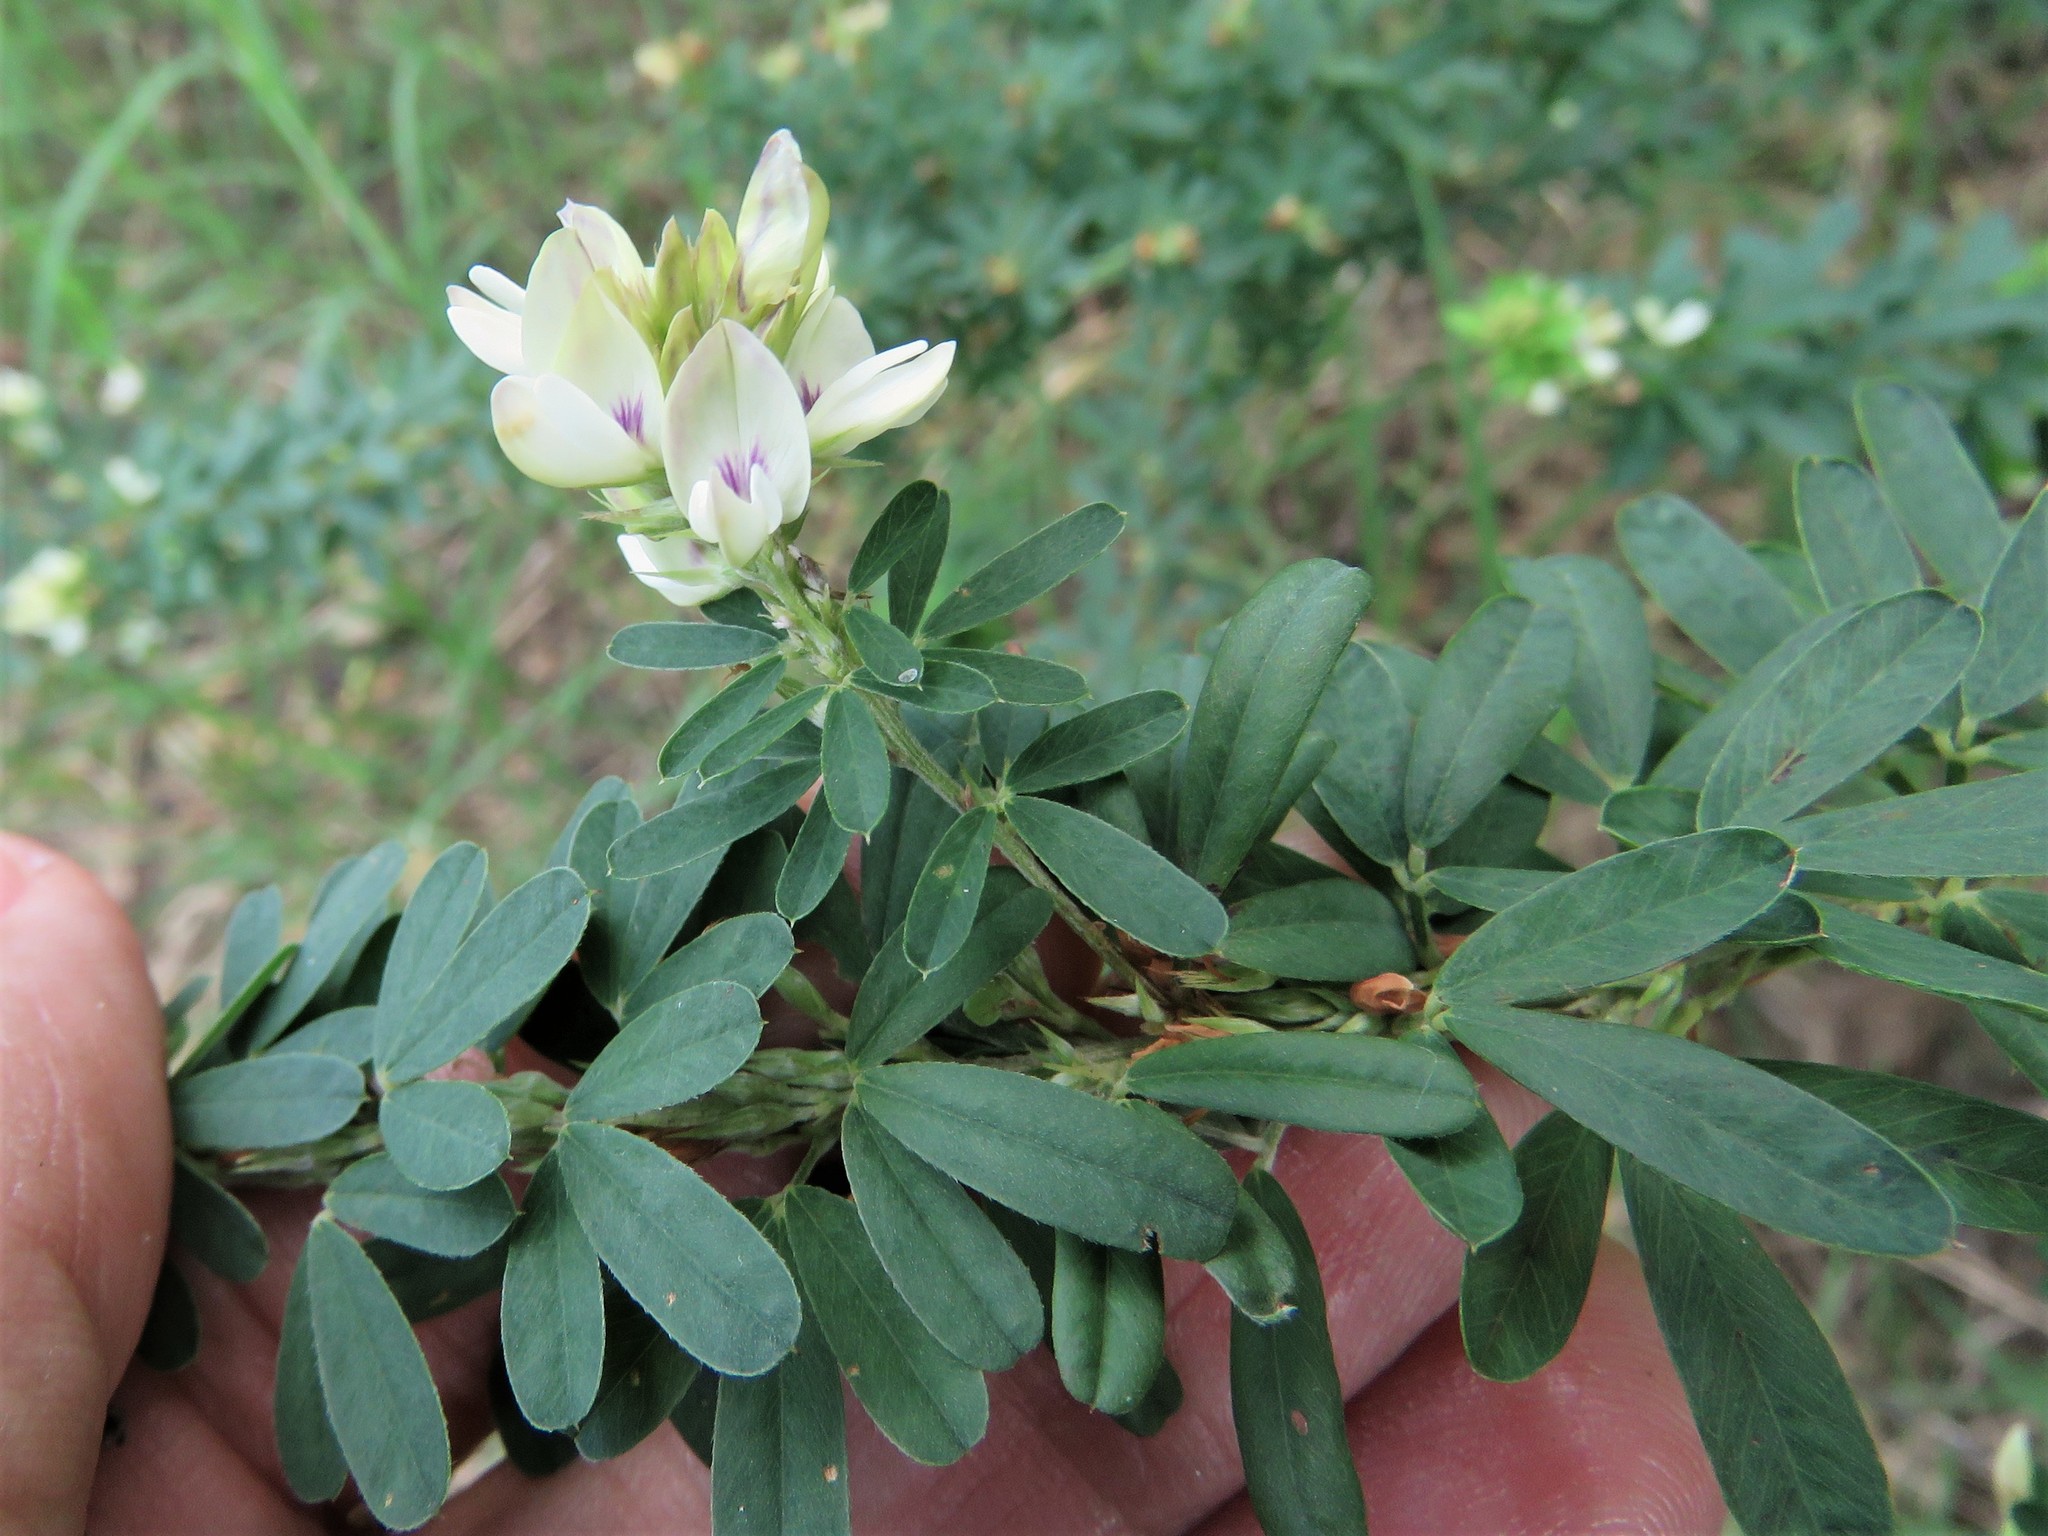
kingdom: Plantae
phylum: Tracheophyta
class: Magnoliopsida
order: Fabales
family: Fabaceae
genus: Lespedeza
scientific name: Lespedeza cuneata
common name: Chinese bush-clover
